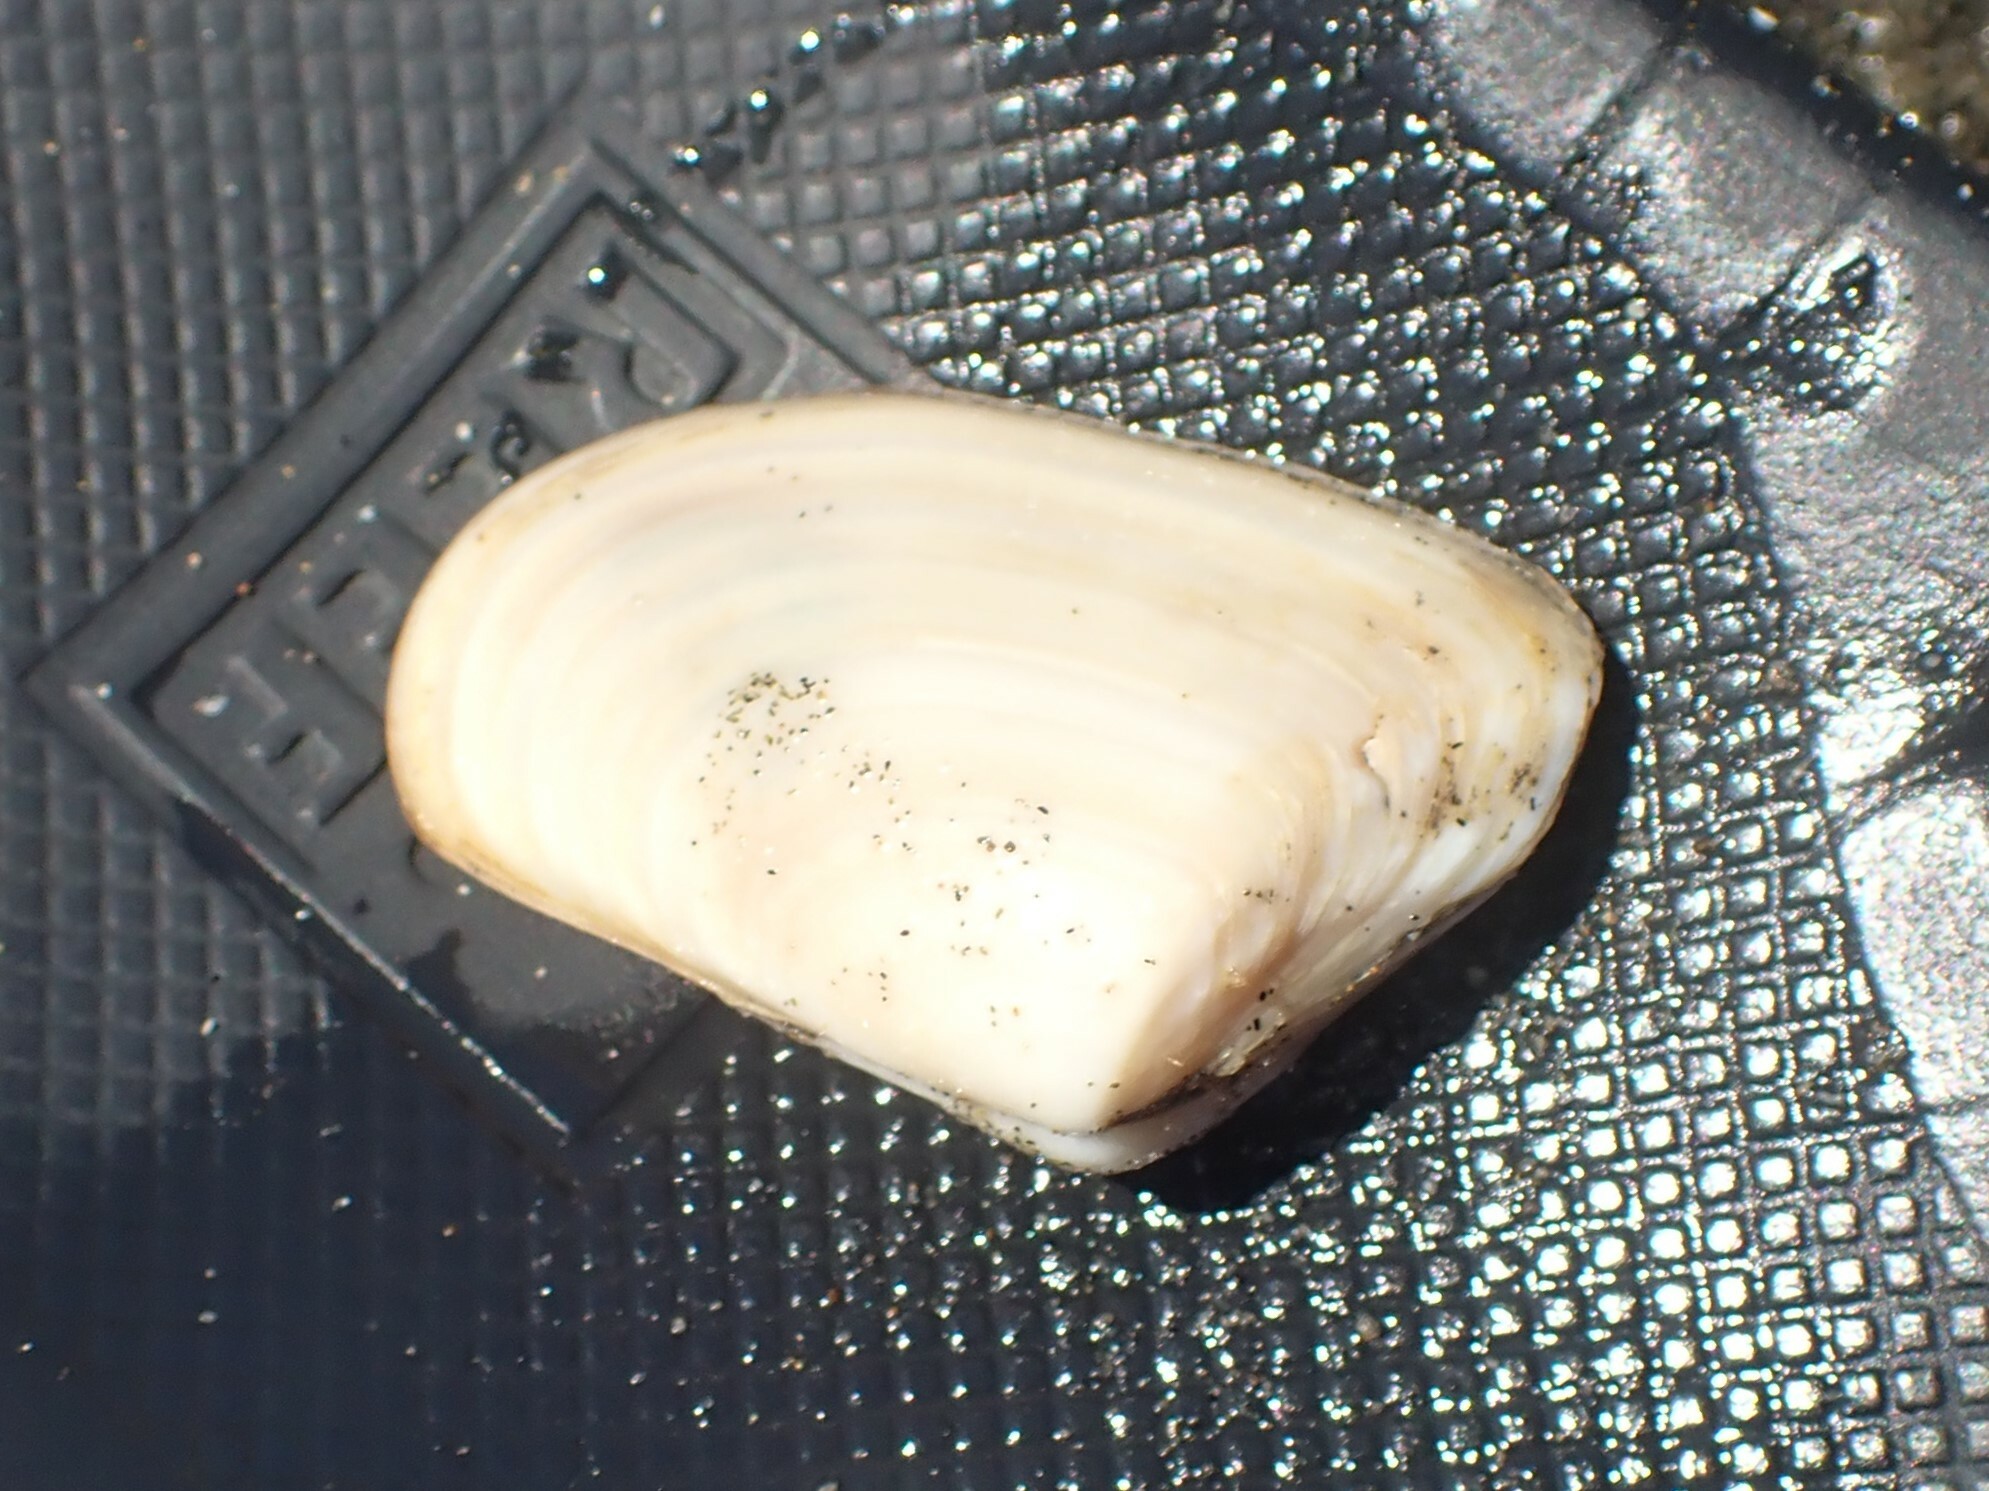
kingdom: Animalia
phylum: Mollusca
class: Bivalvia
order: Venerida
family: Mesodesmatidae
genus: Paphies
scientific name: Paphies subtriangulata
